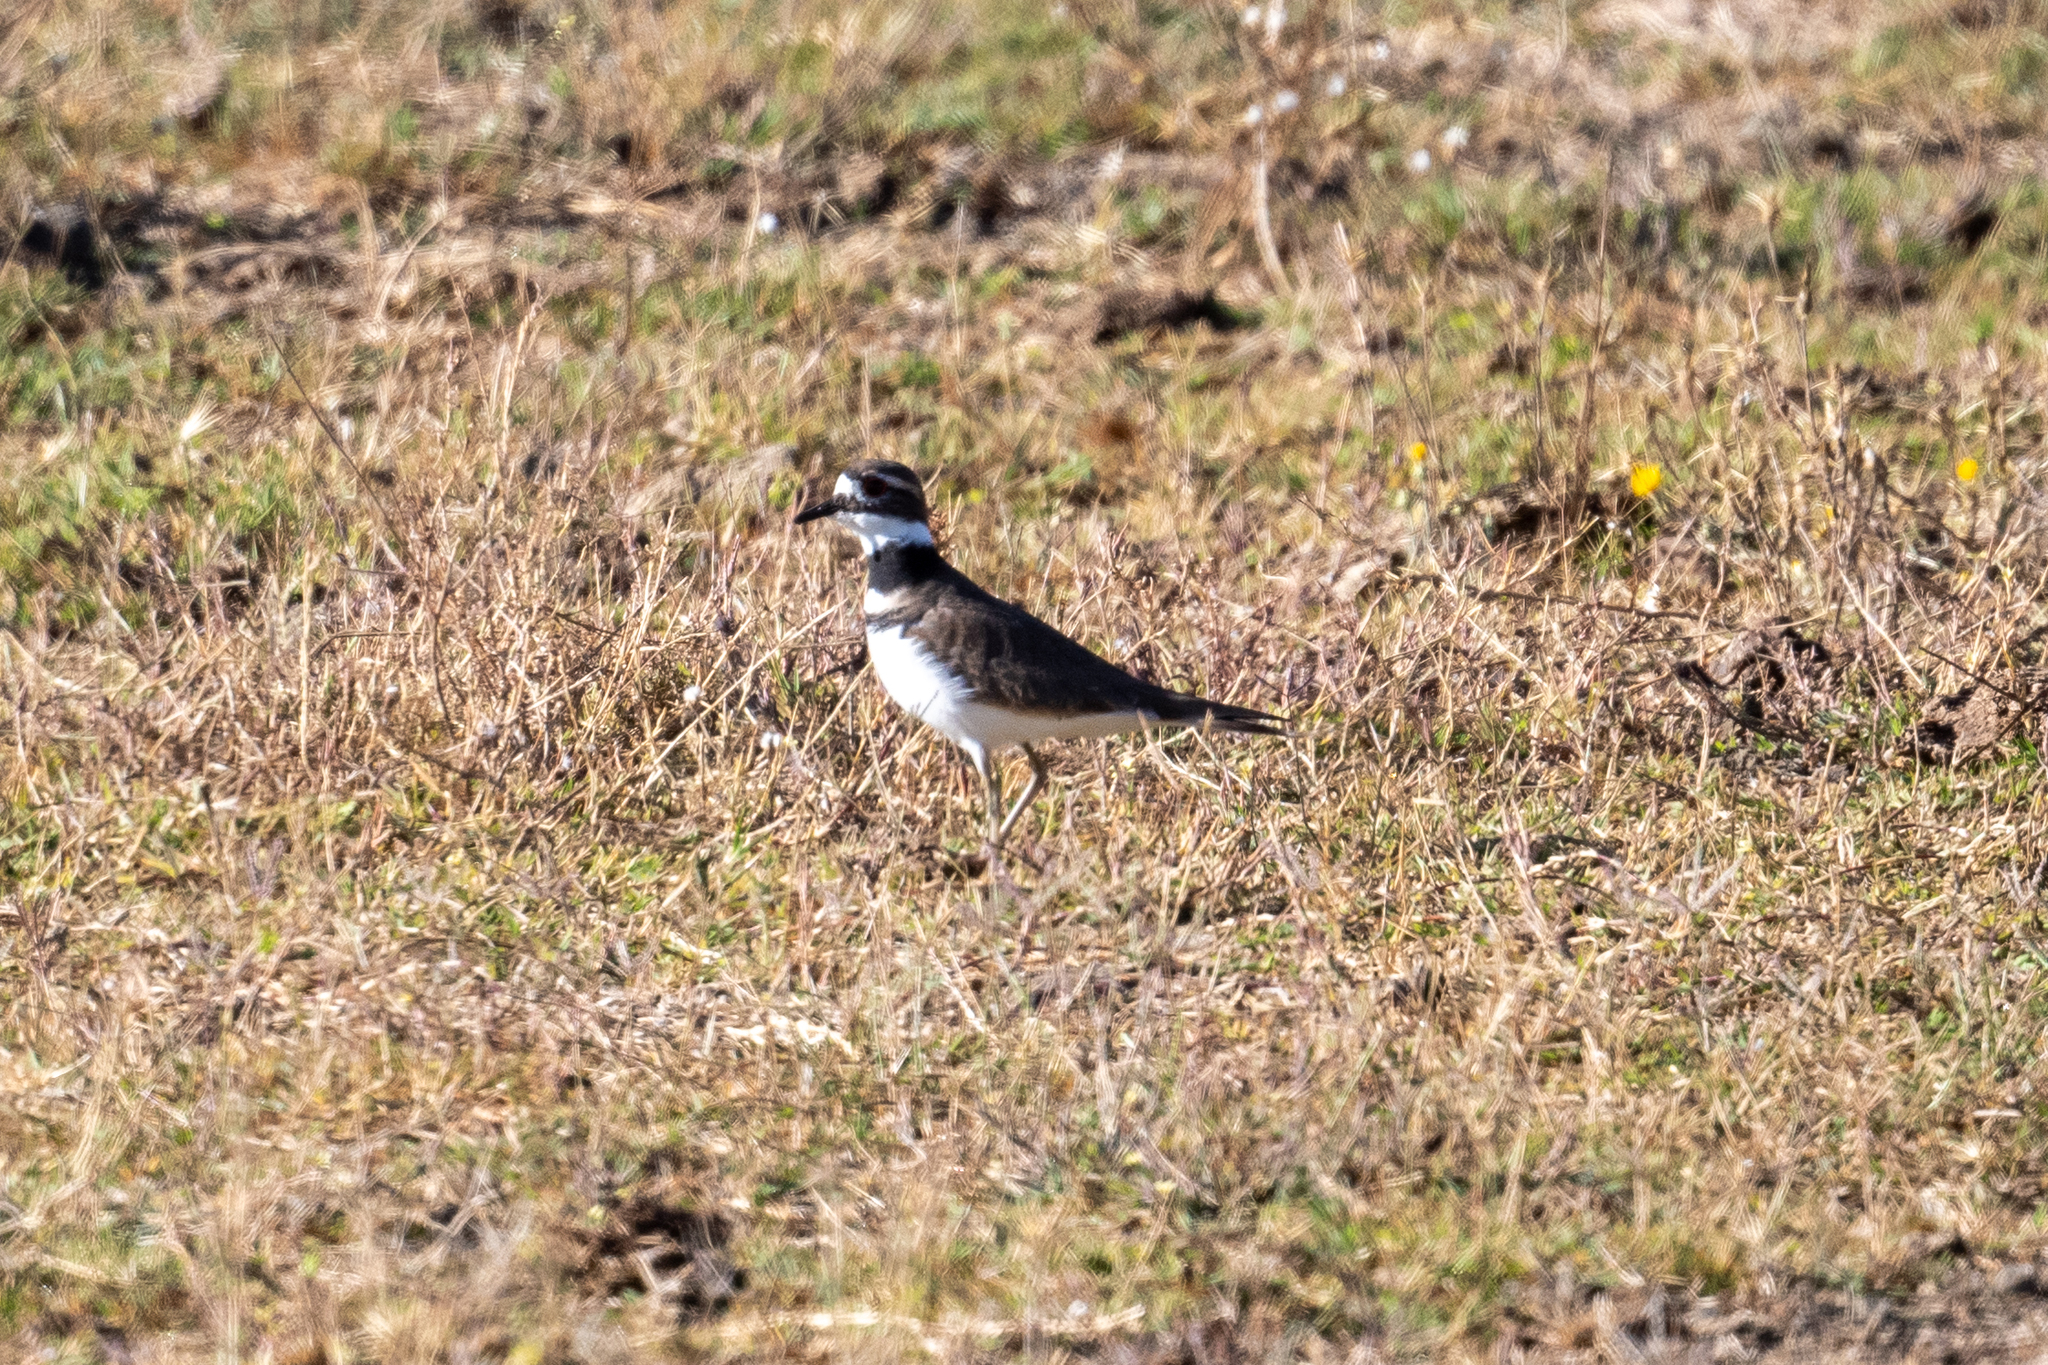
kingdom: Animalia
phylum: Chordata
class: Aves
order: Charadriiformes
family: Charadriidae
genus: Charadrius
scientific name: Charadrius vociferus
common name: Killdeer
